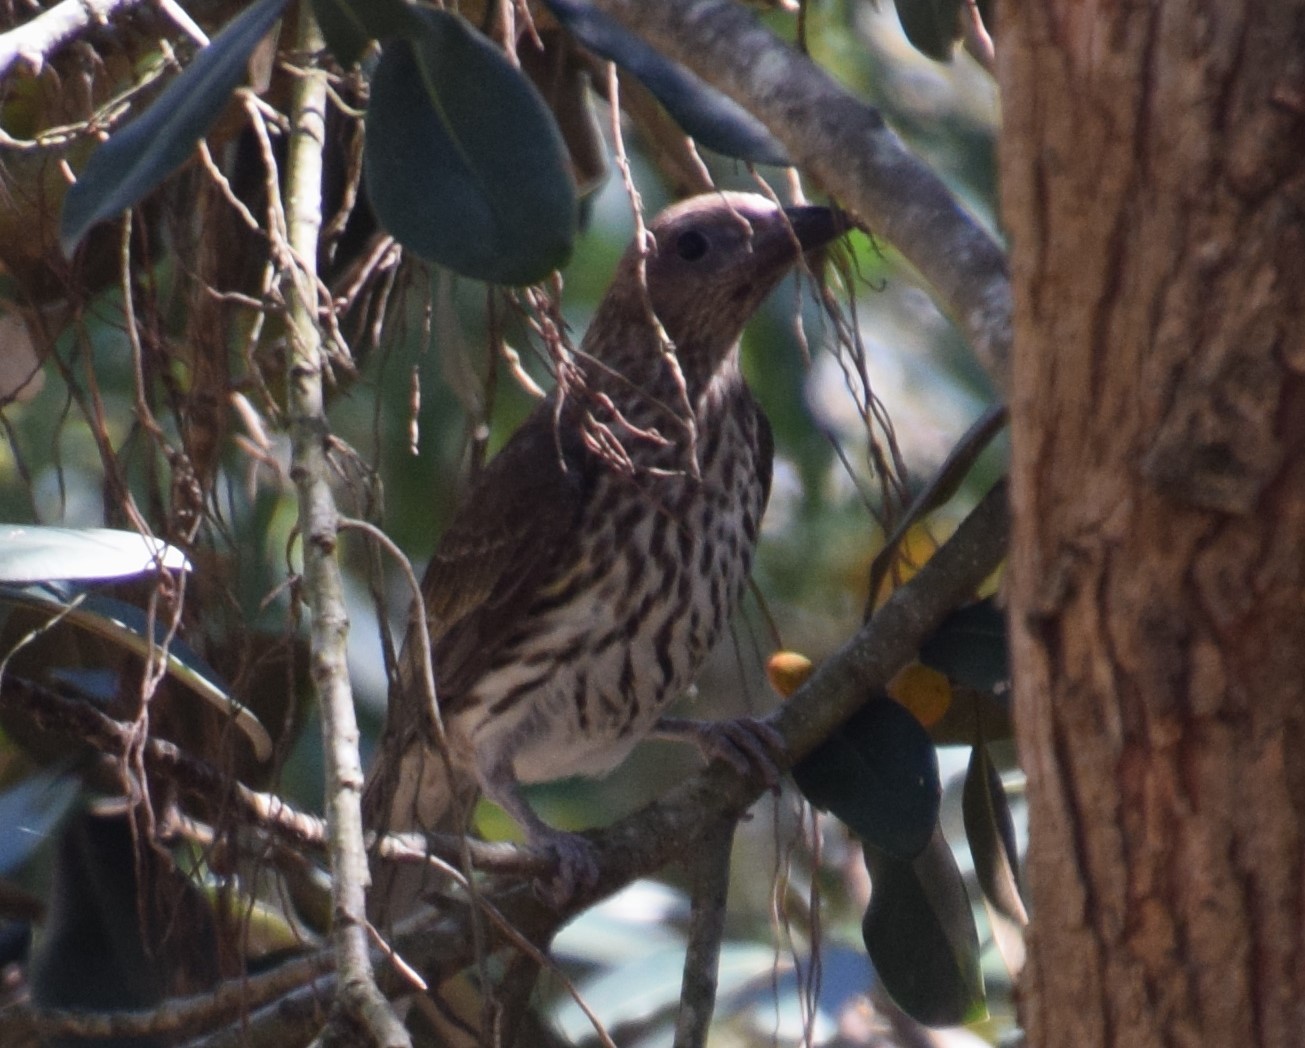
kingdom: Animalia
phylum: Chordata
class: Aves
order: Passeriformes
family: Oriolidae
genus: Sphecotheres
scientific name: Sphecotheres vieilloti
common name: Australasian figbird
